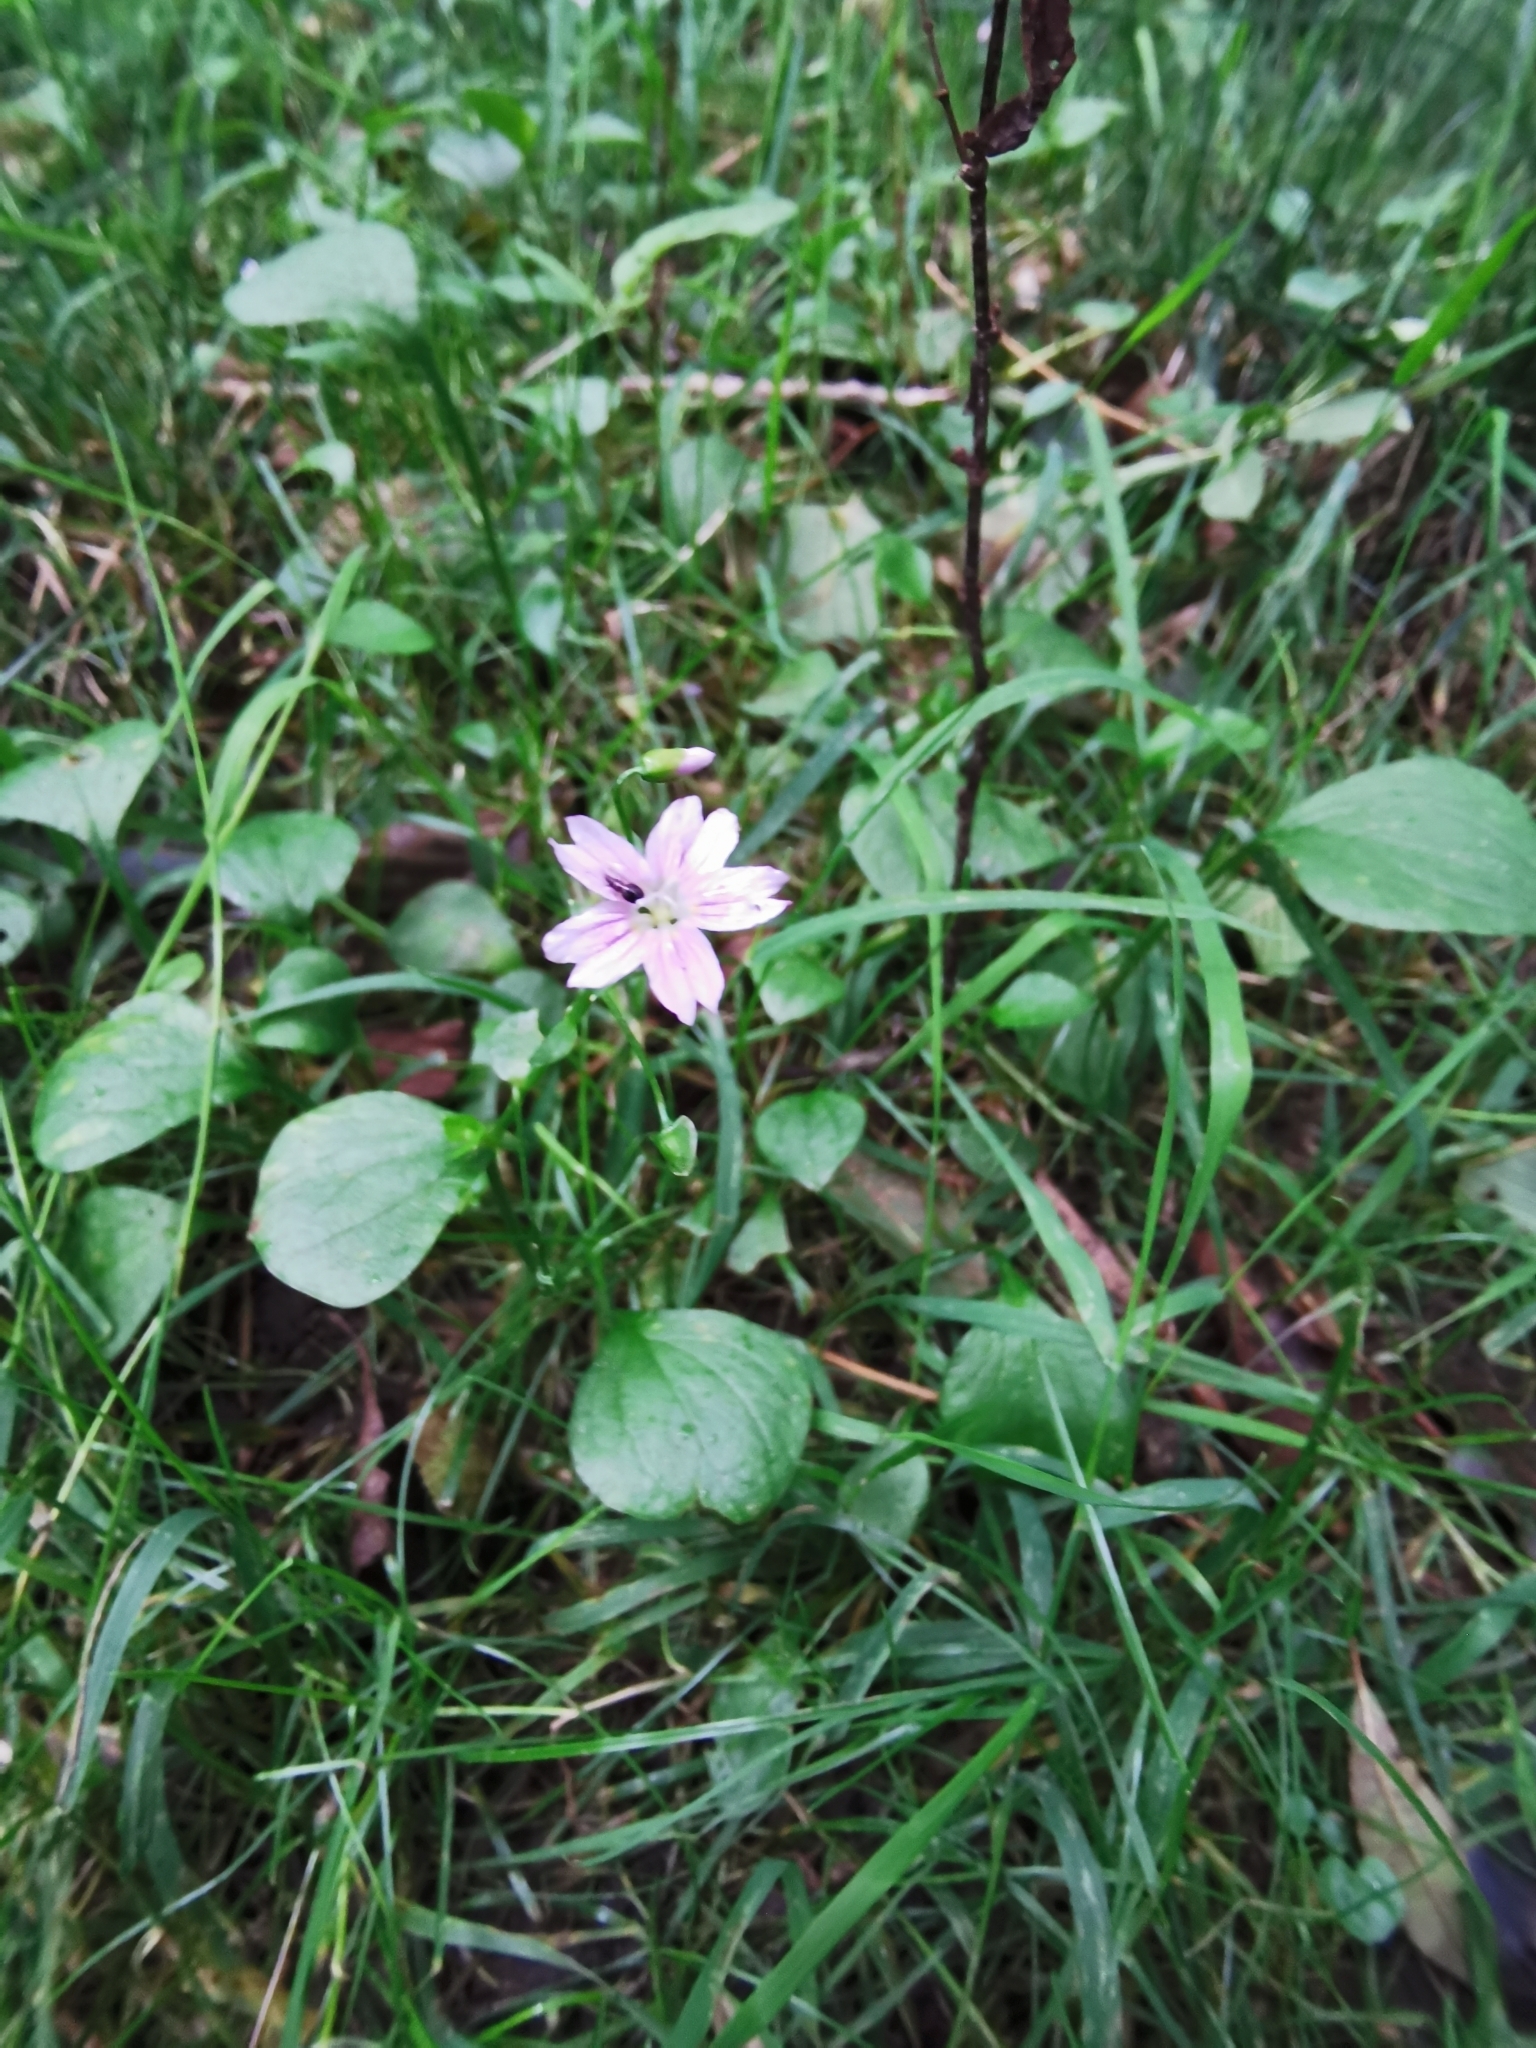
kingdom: Plantae
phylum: Tracheophyta
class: Magnoliopsida
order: Caryophyllales
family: Montiaceae
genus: Claytonia
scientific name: Claytonia sibirica
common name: Pink purslane
